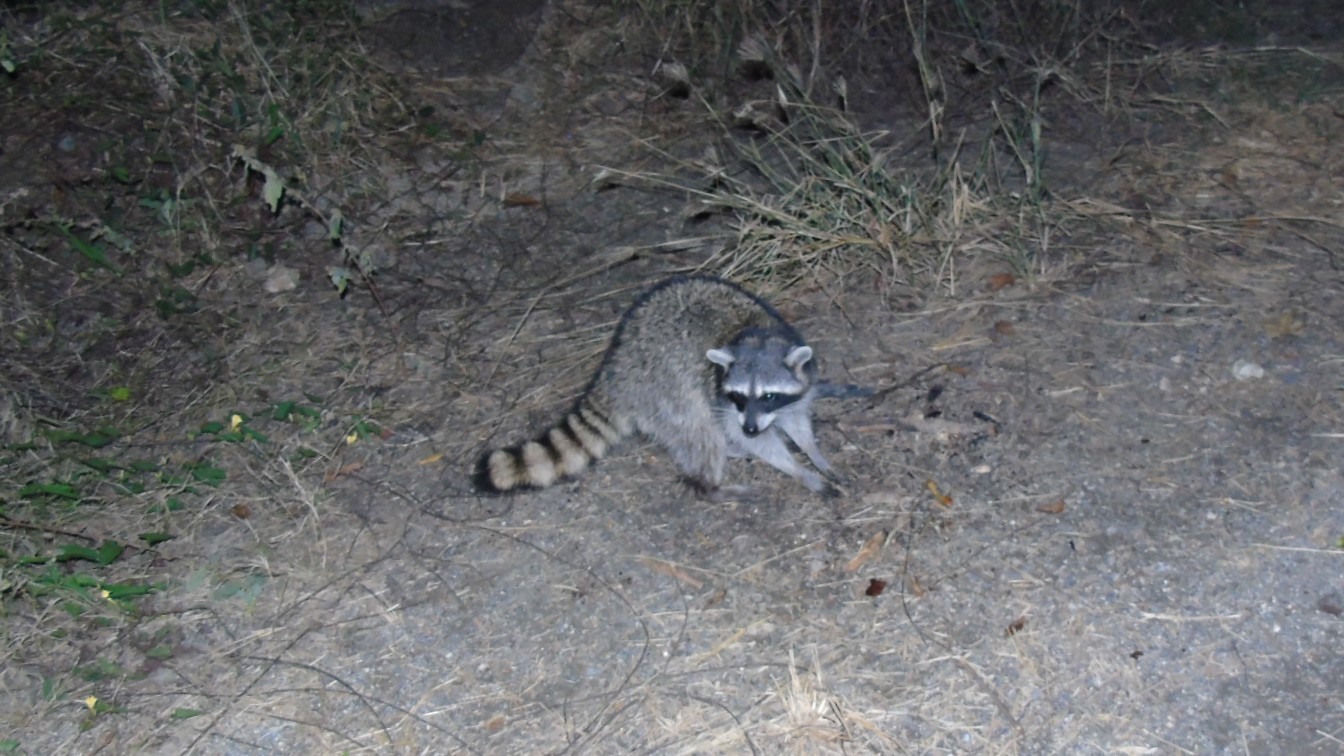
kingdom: Animalia
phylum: Chordata
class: Mammalia
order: Carnivora
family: Procyonidae
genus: Procyon
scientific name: Procyon lotor
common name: Raccoon
